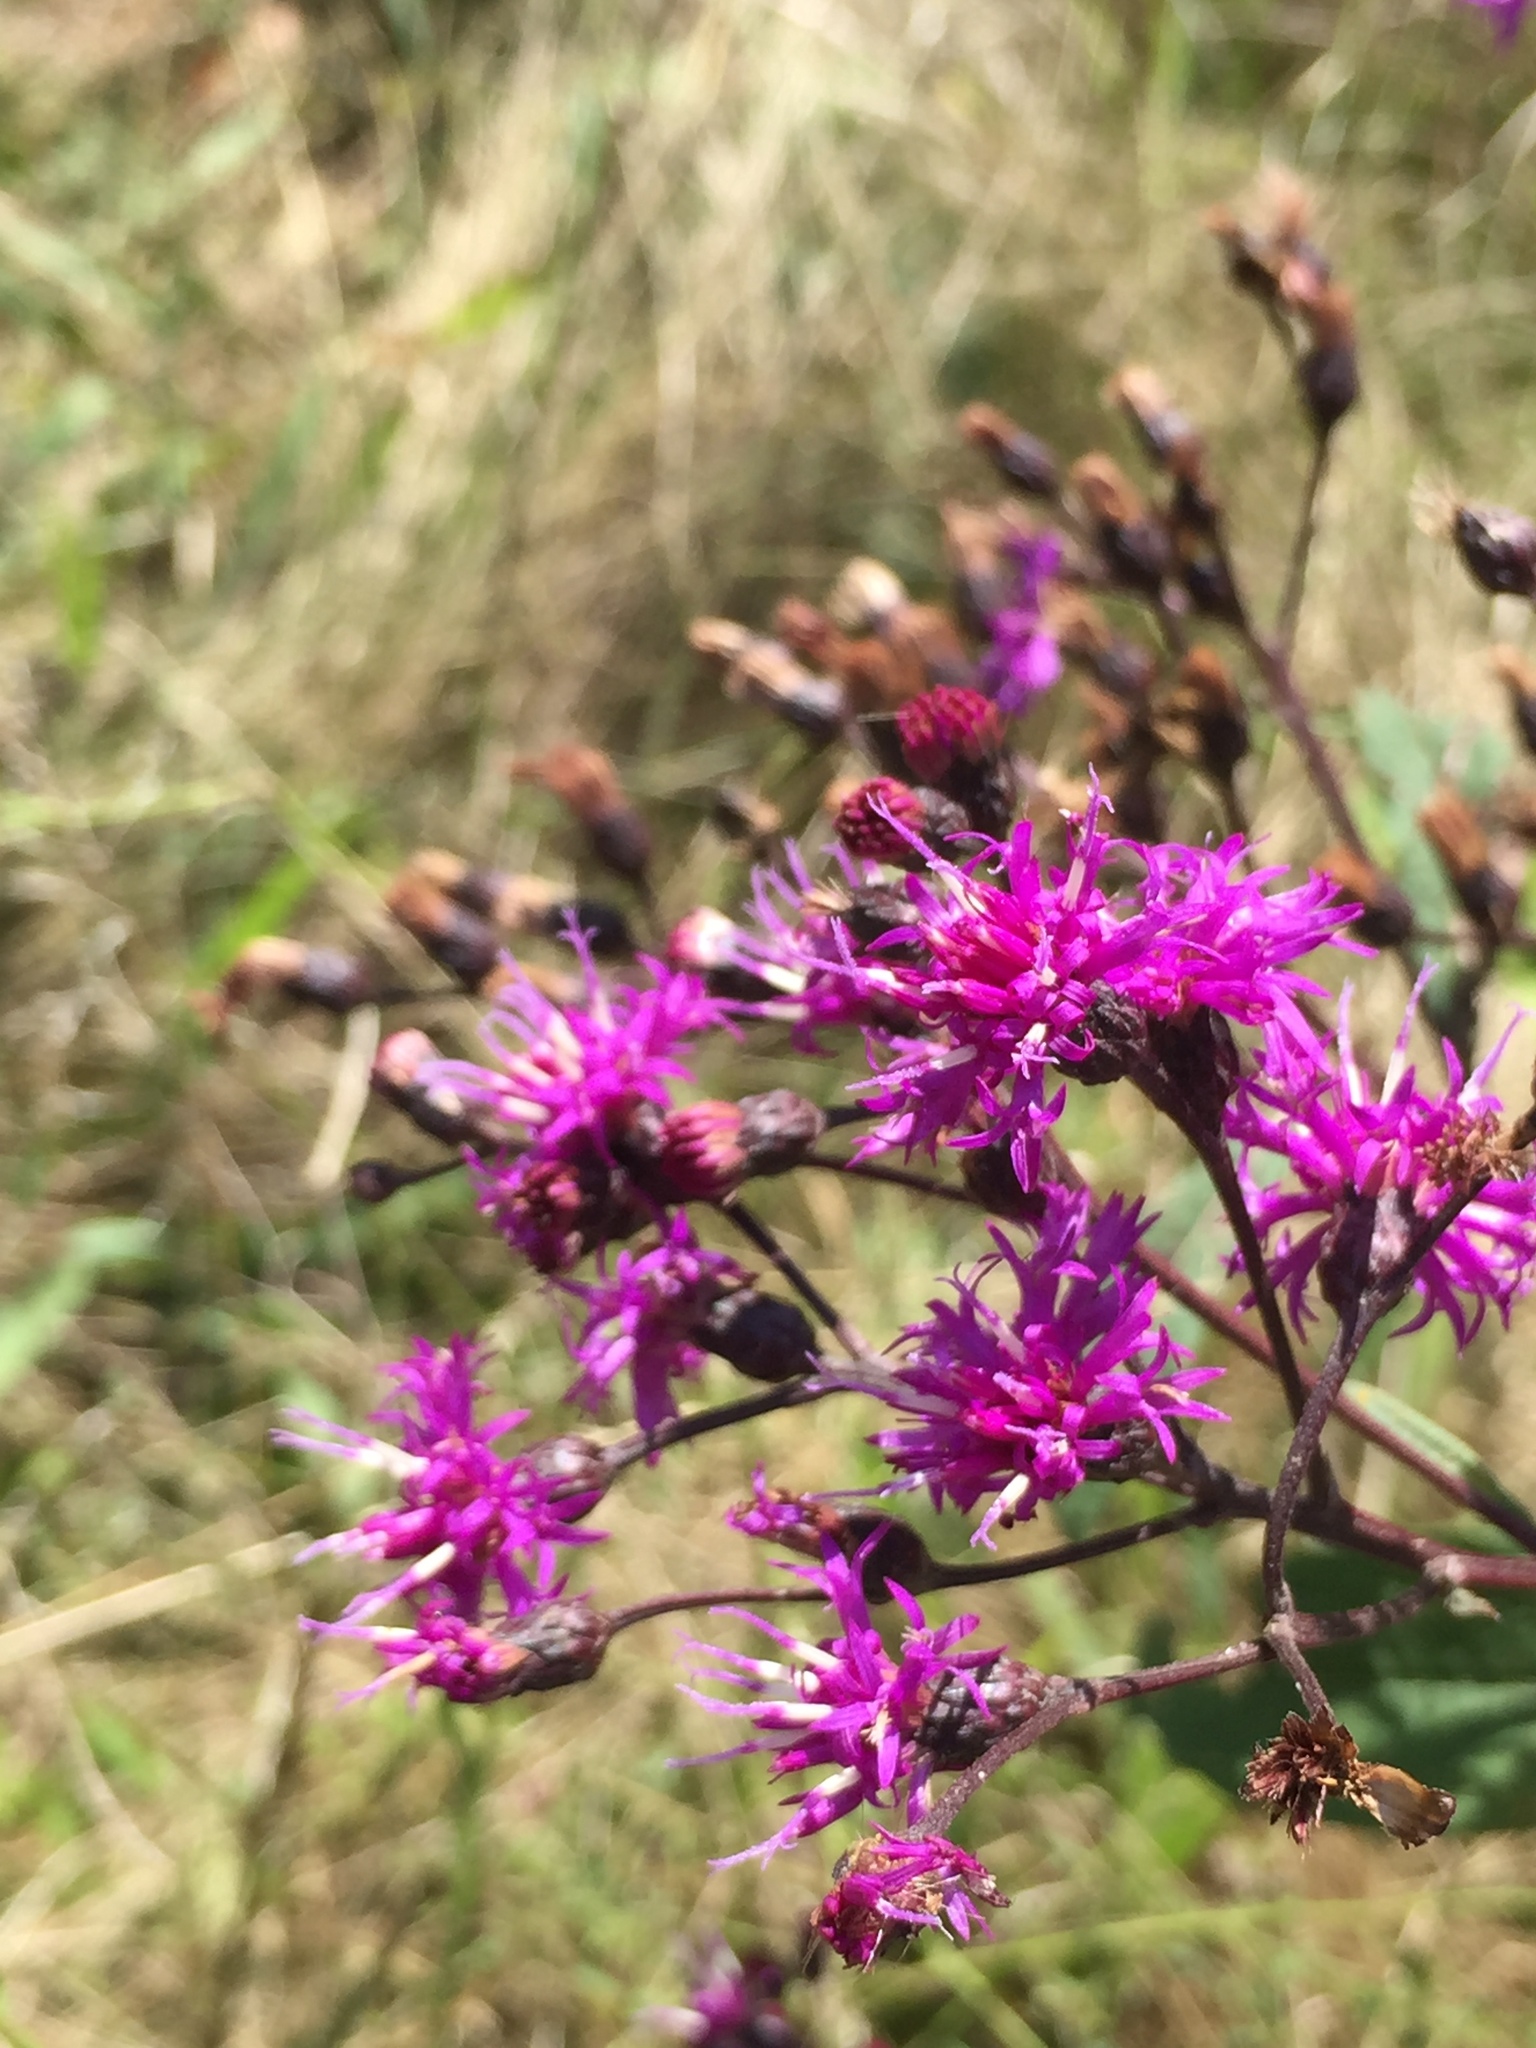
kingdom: Plantae
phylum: Tracheophyta
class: Magnoliopsida
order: Asterales
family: Asteraceae
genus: Vernonia
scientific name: Vernonia gigantea
